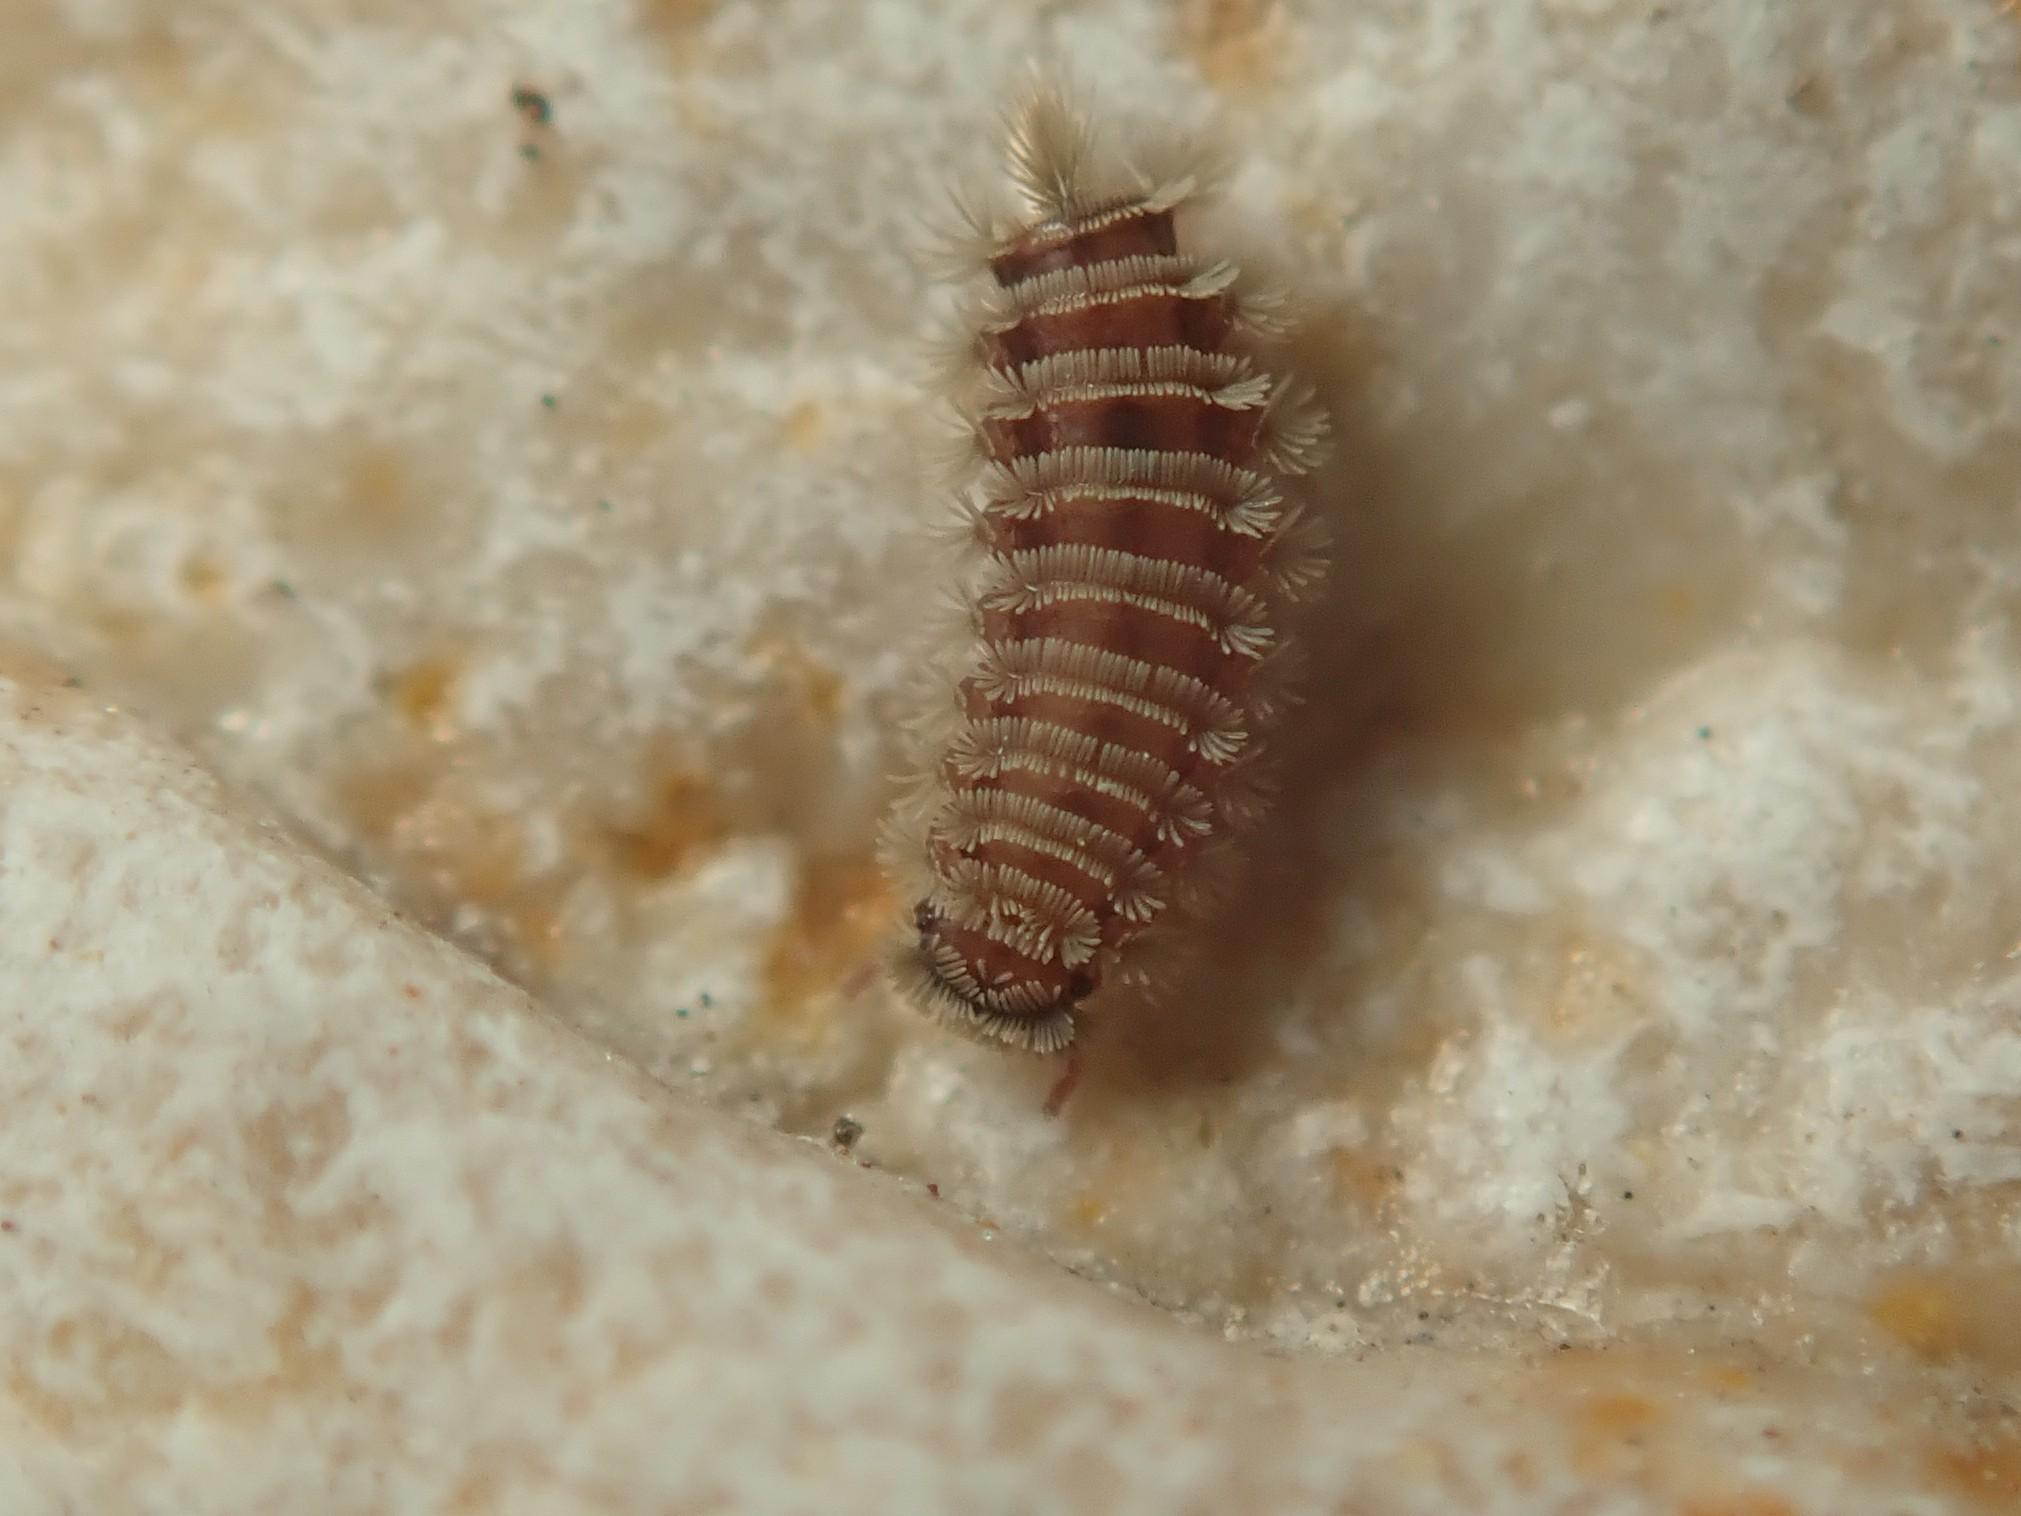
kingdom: Animalia
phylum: Arthropoda
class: Diplopoda
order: Polyxenida
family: Polyxenidae
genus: Polyxenus
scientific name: Polyxenus lagurus
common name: Bristly millipede
